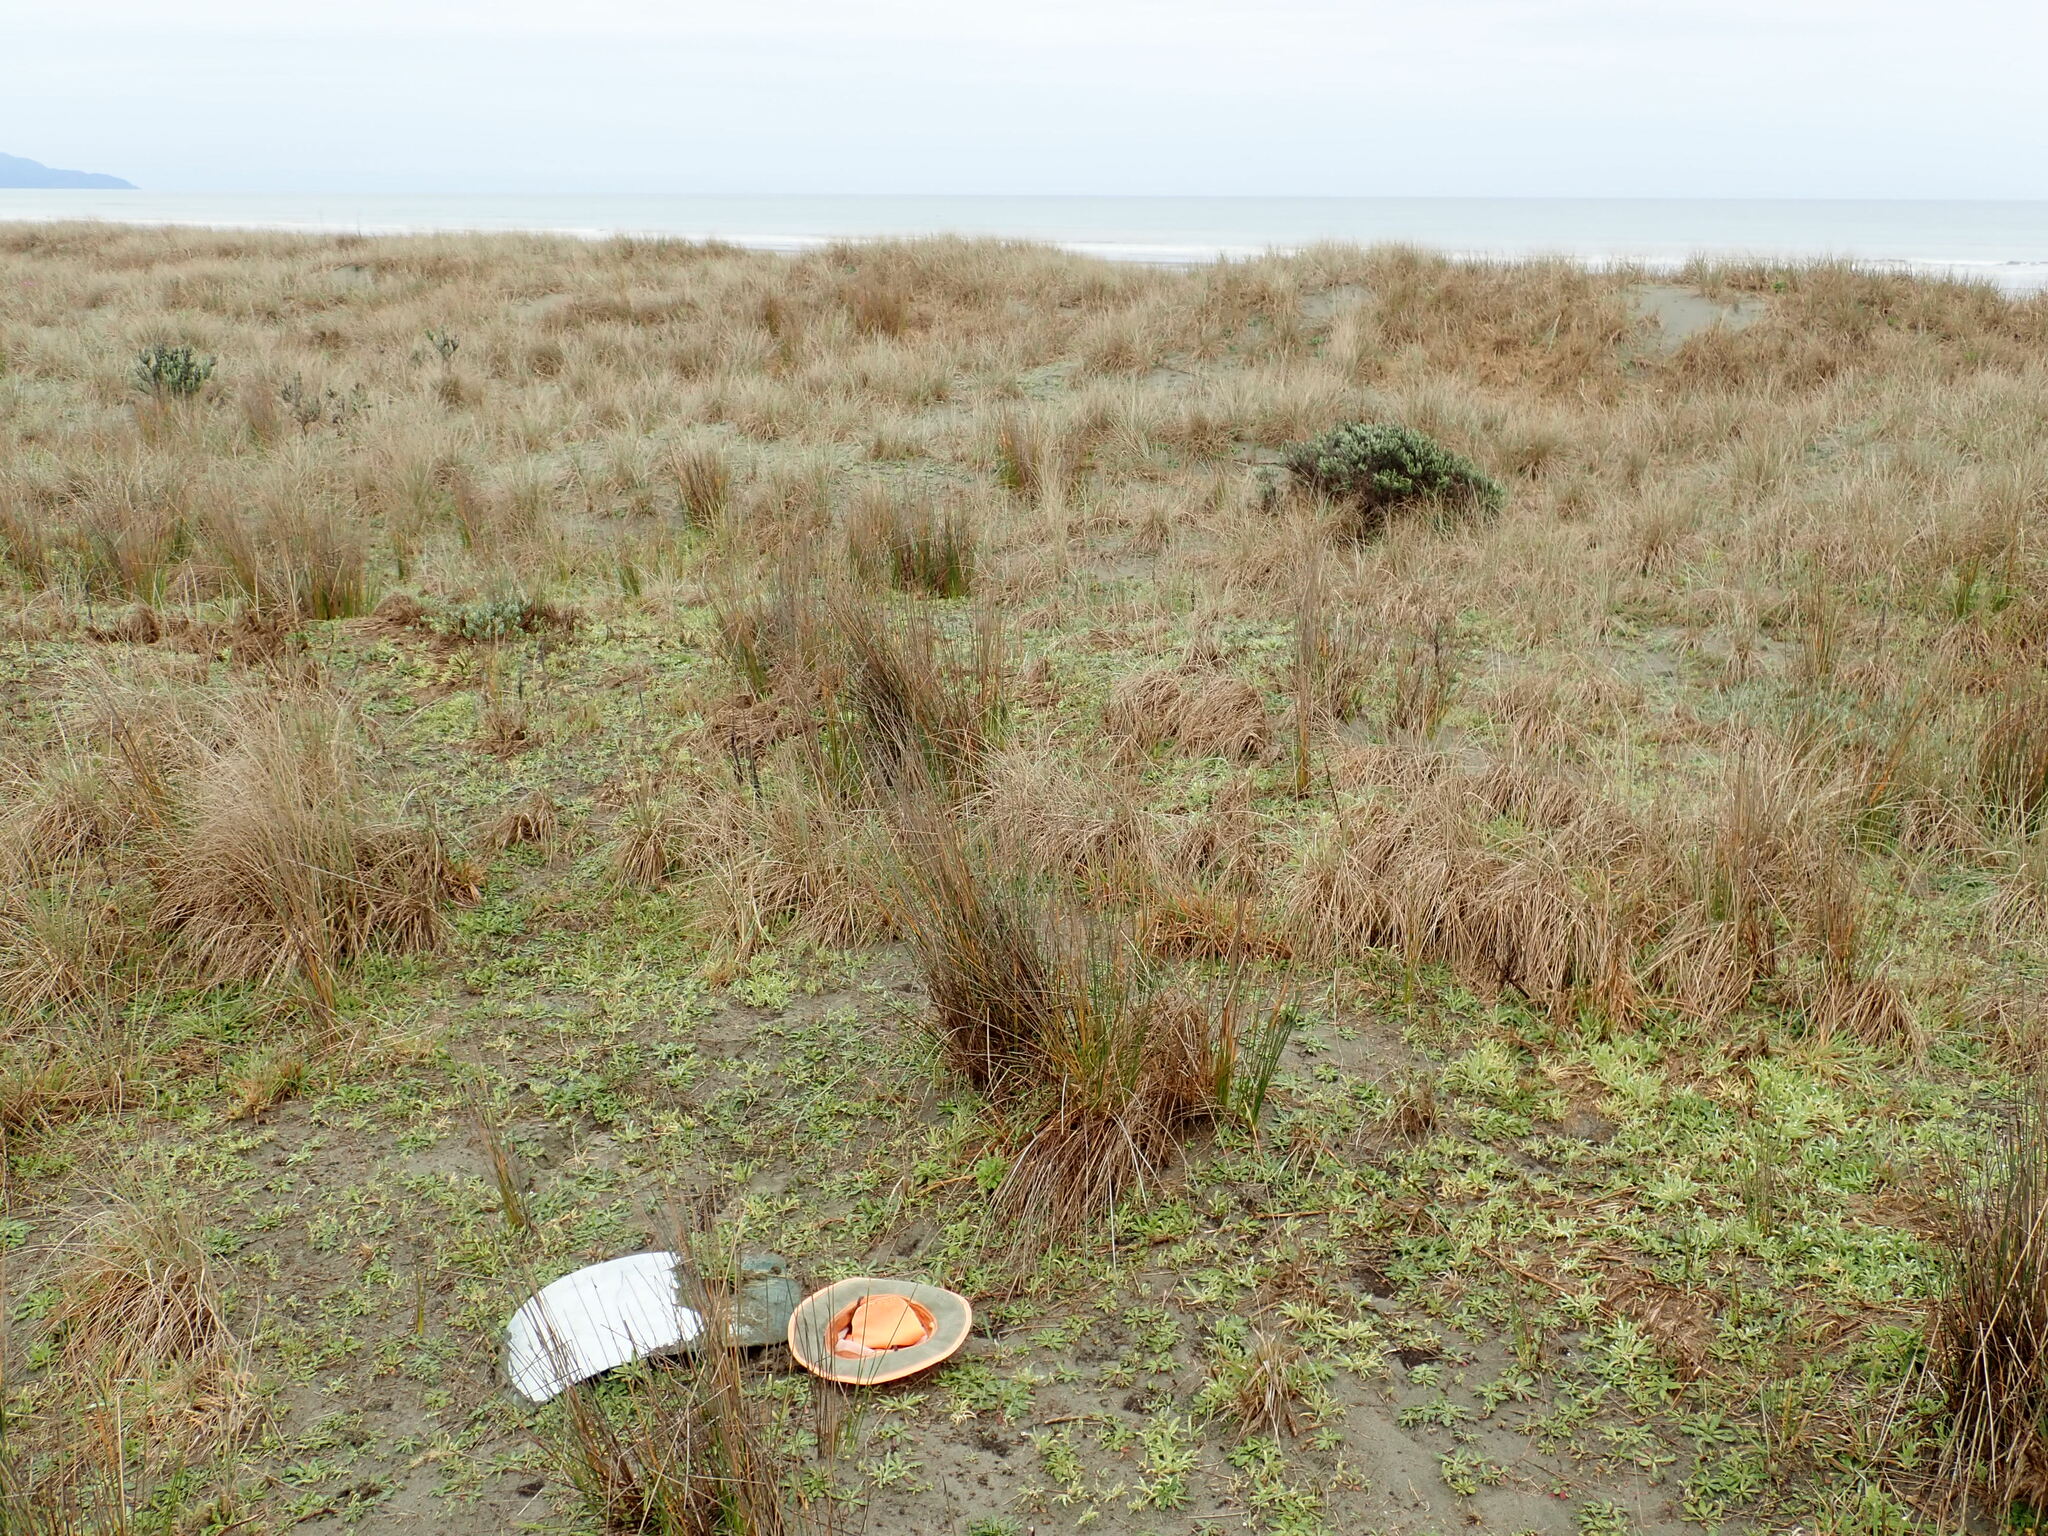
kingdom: Animalia
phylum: Arthropoda
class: Arachnida
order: Araneae
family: Mimetidae
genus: Australomimetus
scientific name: Australomimetus hartleyensis
